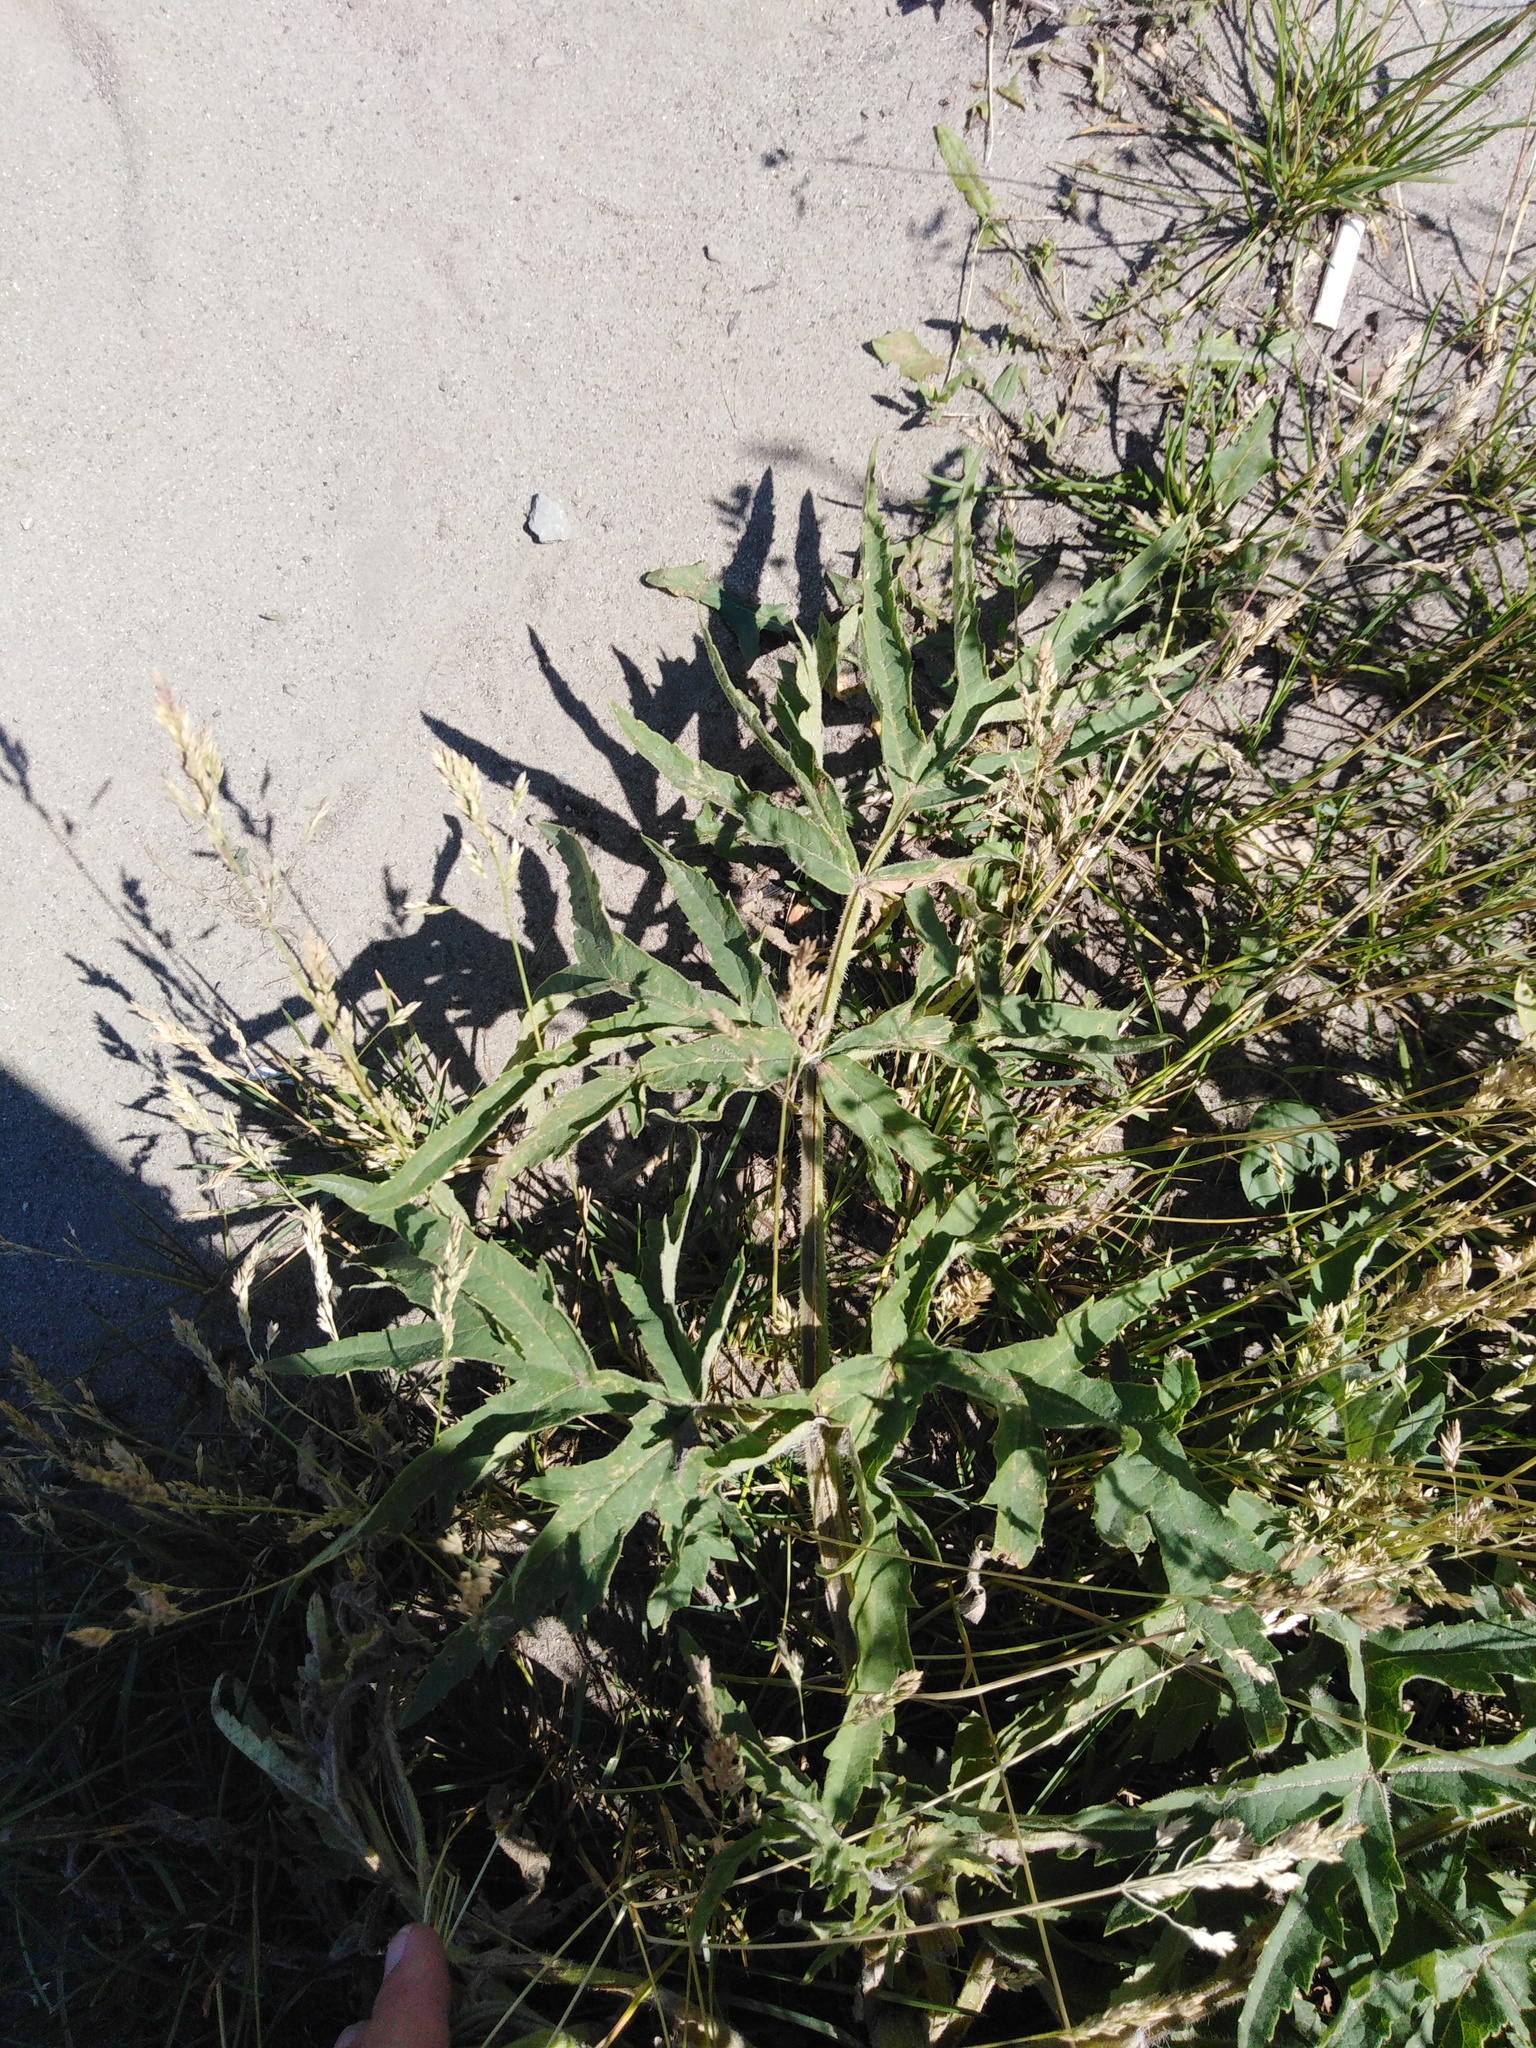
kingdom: Plantae
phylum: Tracheophyta
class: Magnoliopsida
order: Apiales
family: Apiaceae
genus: Heracleum
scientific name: Heracleum sphondylium
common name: Hogweed
